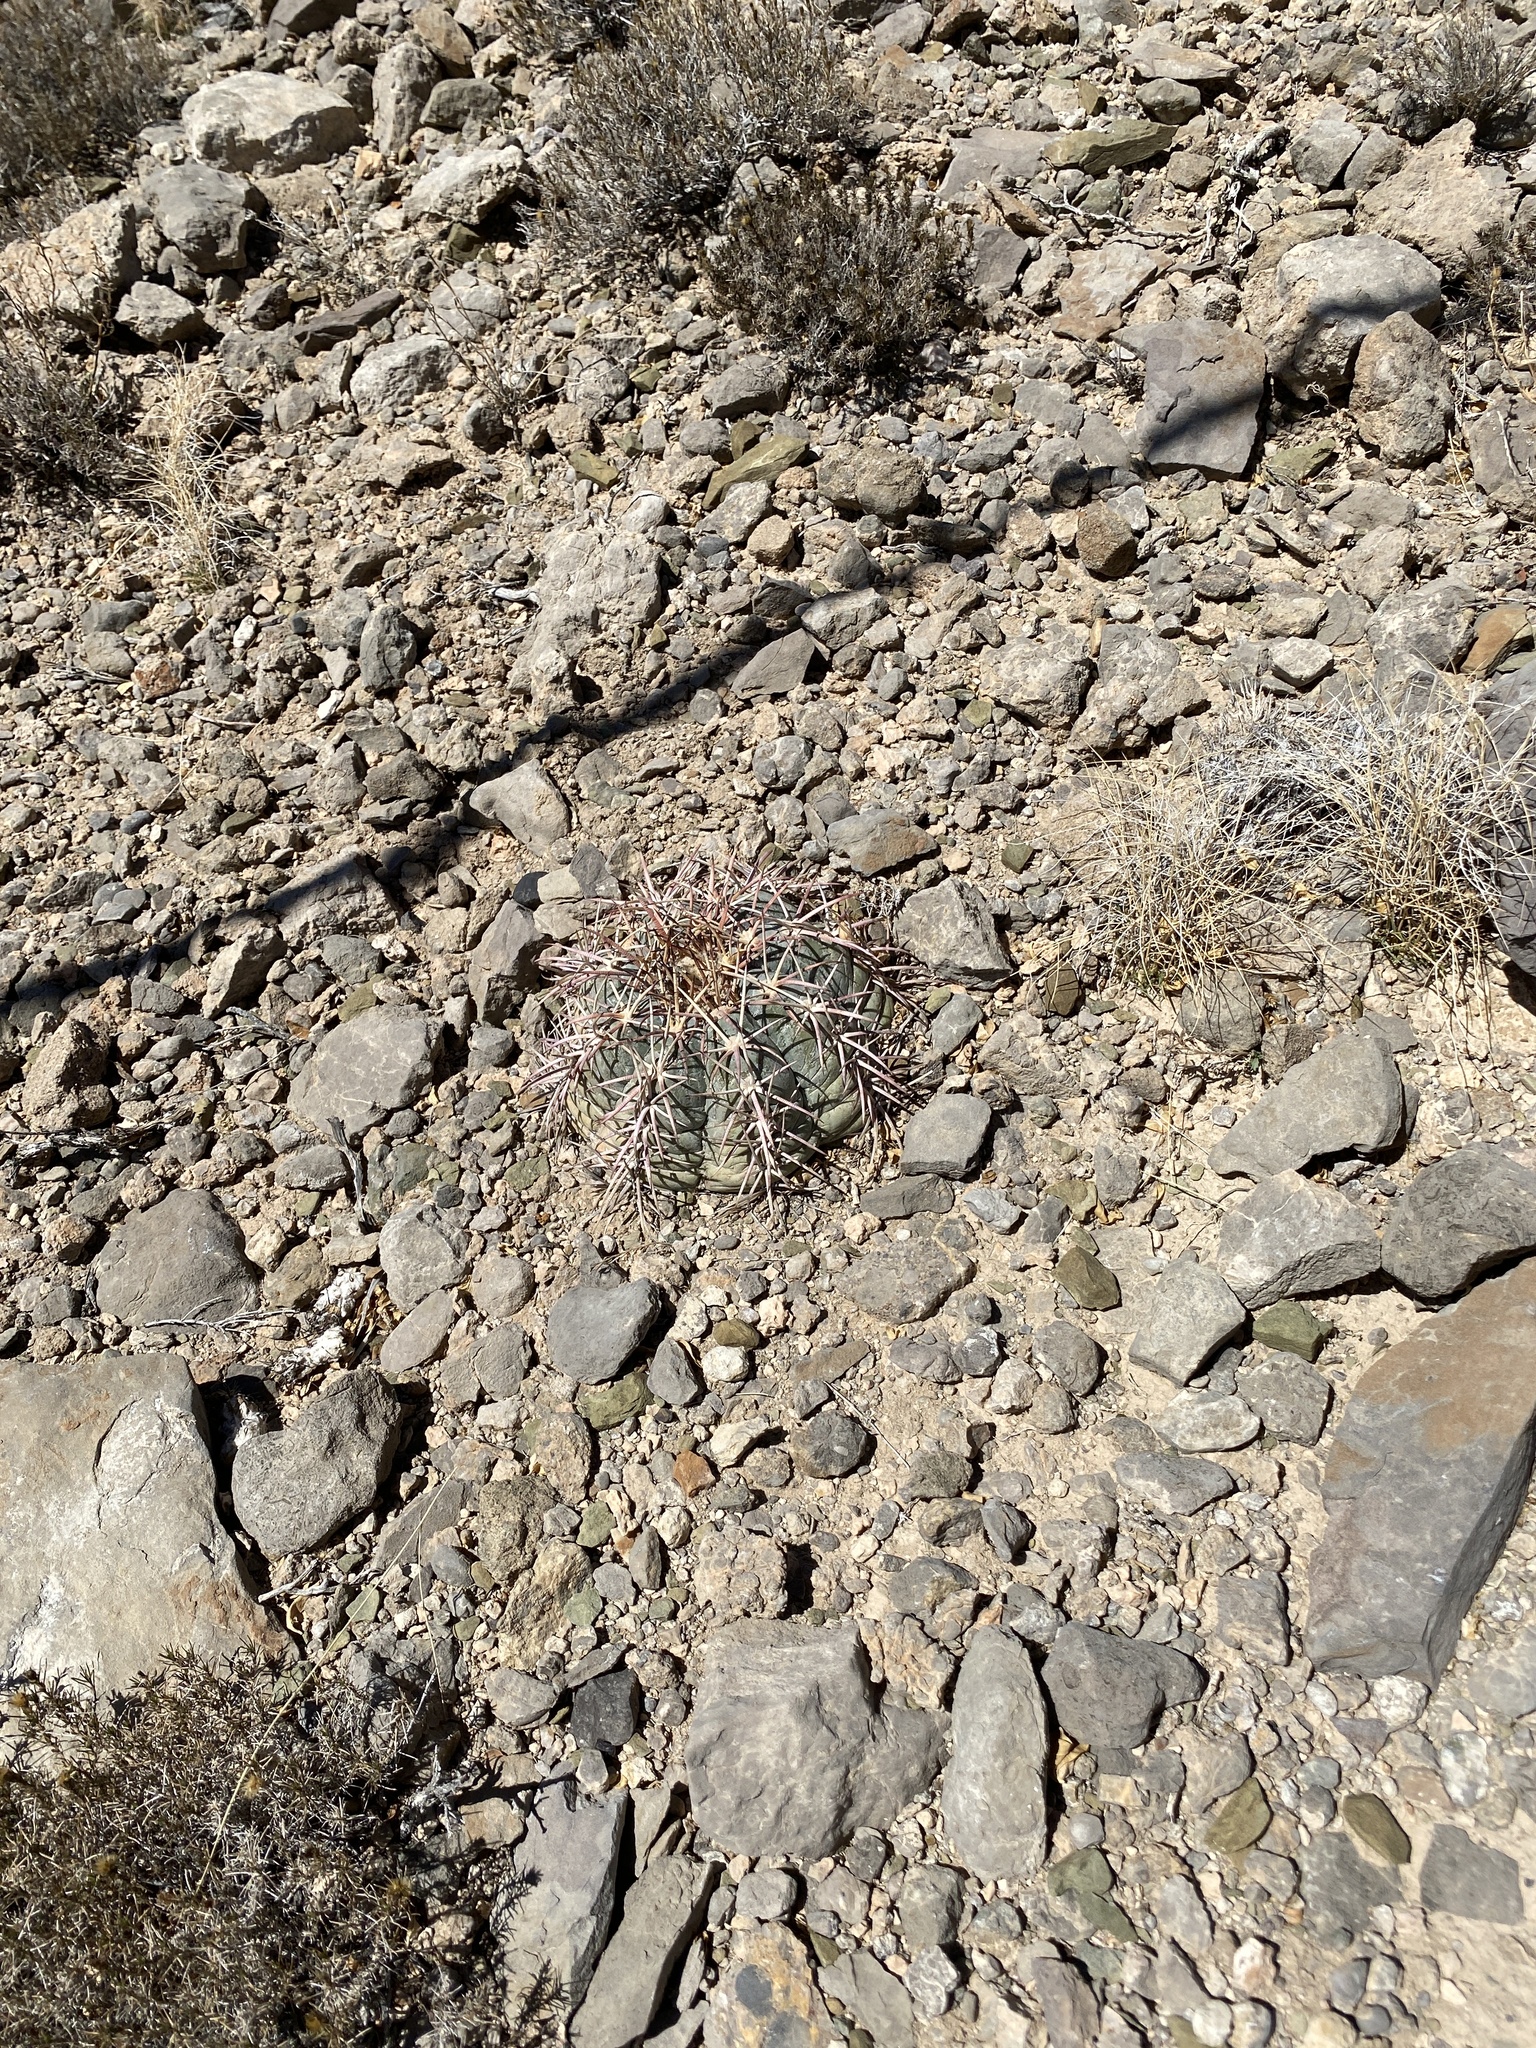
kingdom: Plantae
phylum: Tracheophyta
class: Magnoliopsida
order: Caryophyllales
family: Cactaceae
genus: Echinocactus
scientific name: Echinocactus horizonthalonius
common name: Devilshead
